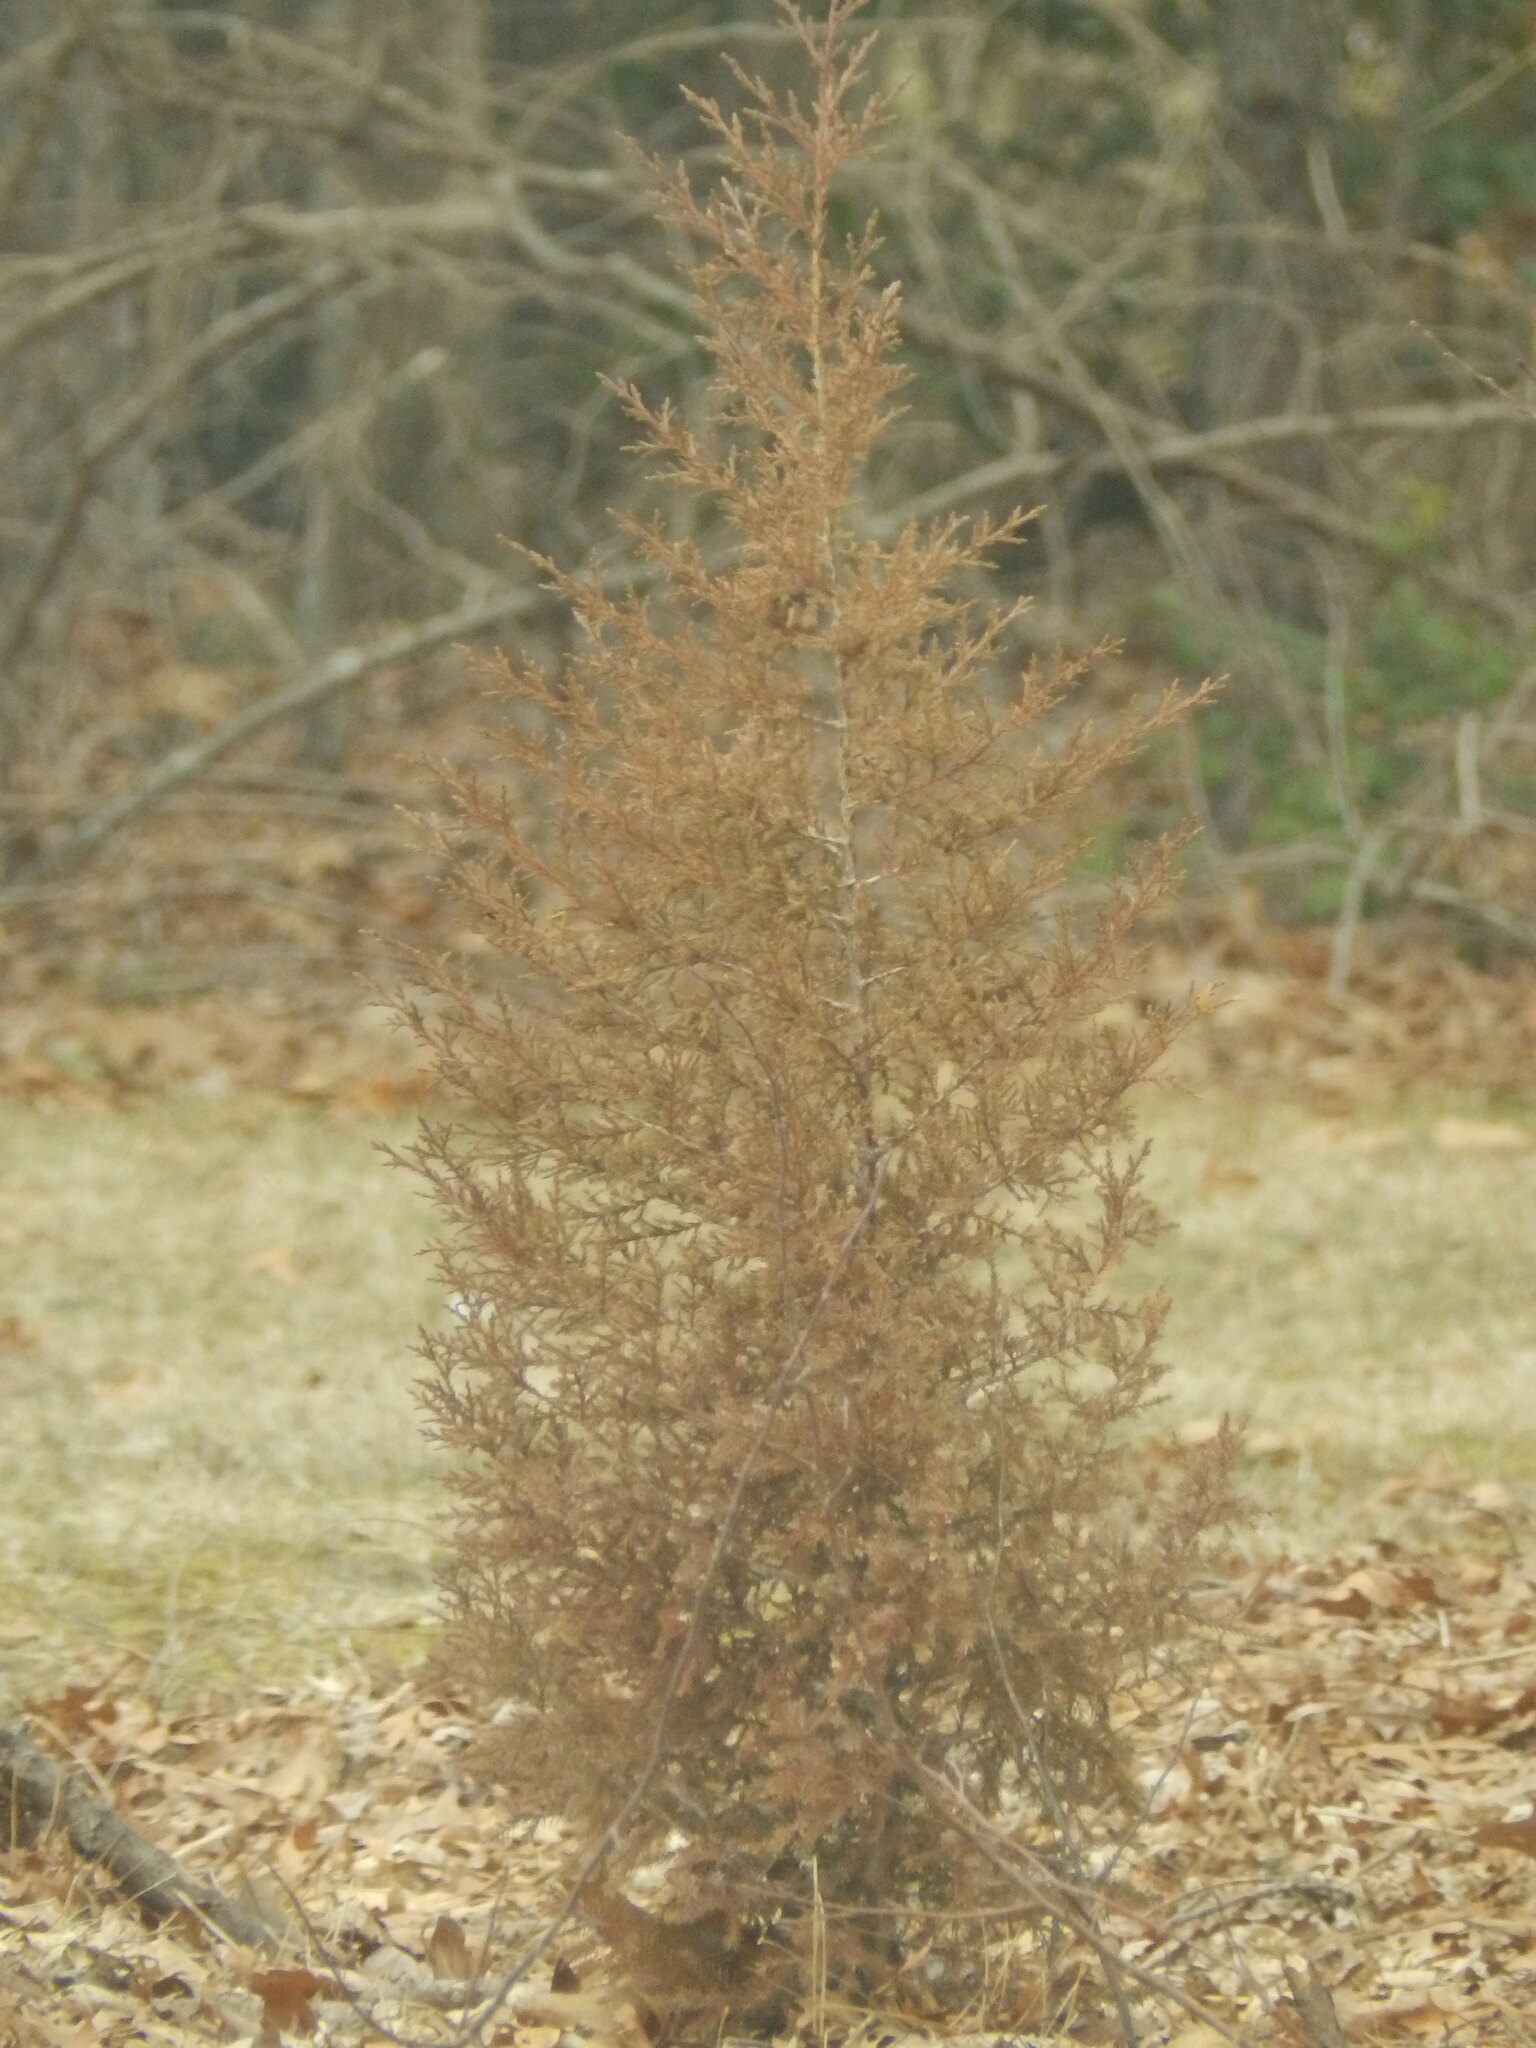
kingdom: Plantae
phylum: Tracheophyta
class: Pinopsida
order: Pinales
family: Cupressaceae
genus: Juniperus
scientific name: Juniperus virginiana
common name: Red juniper
